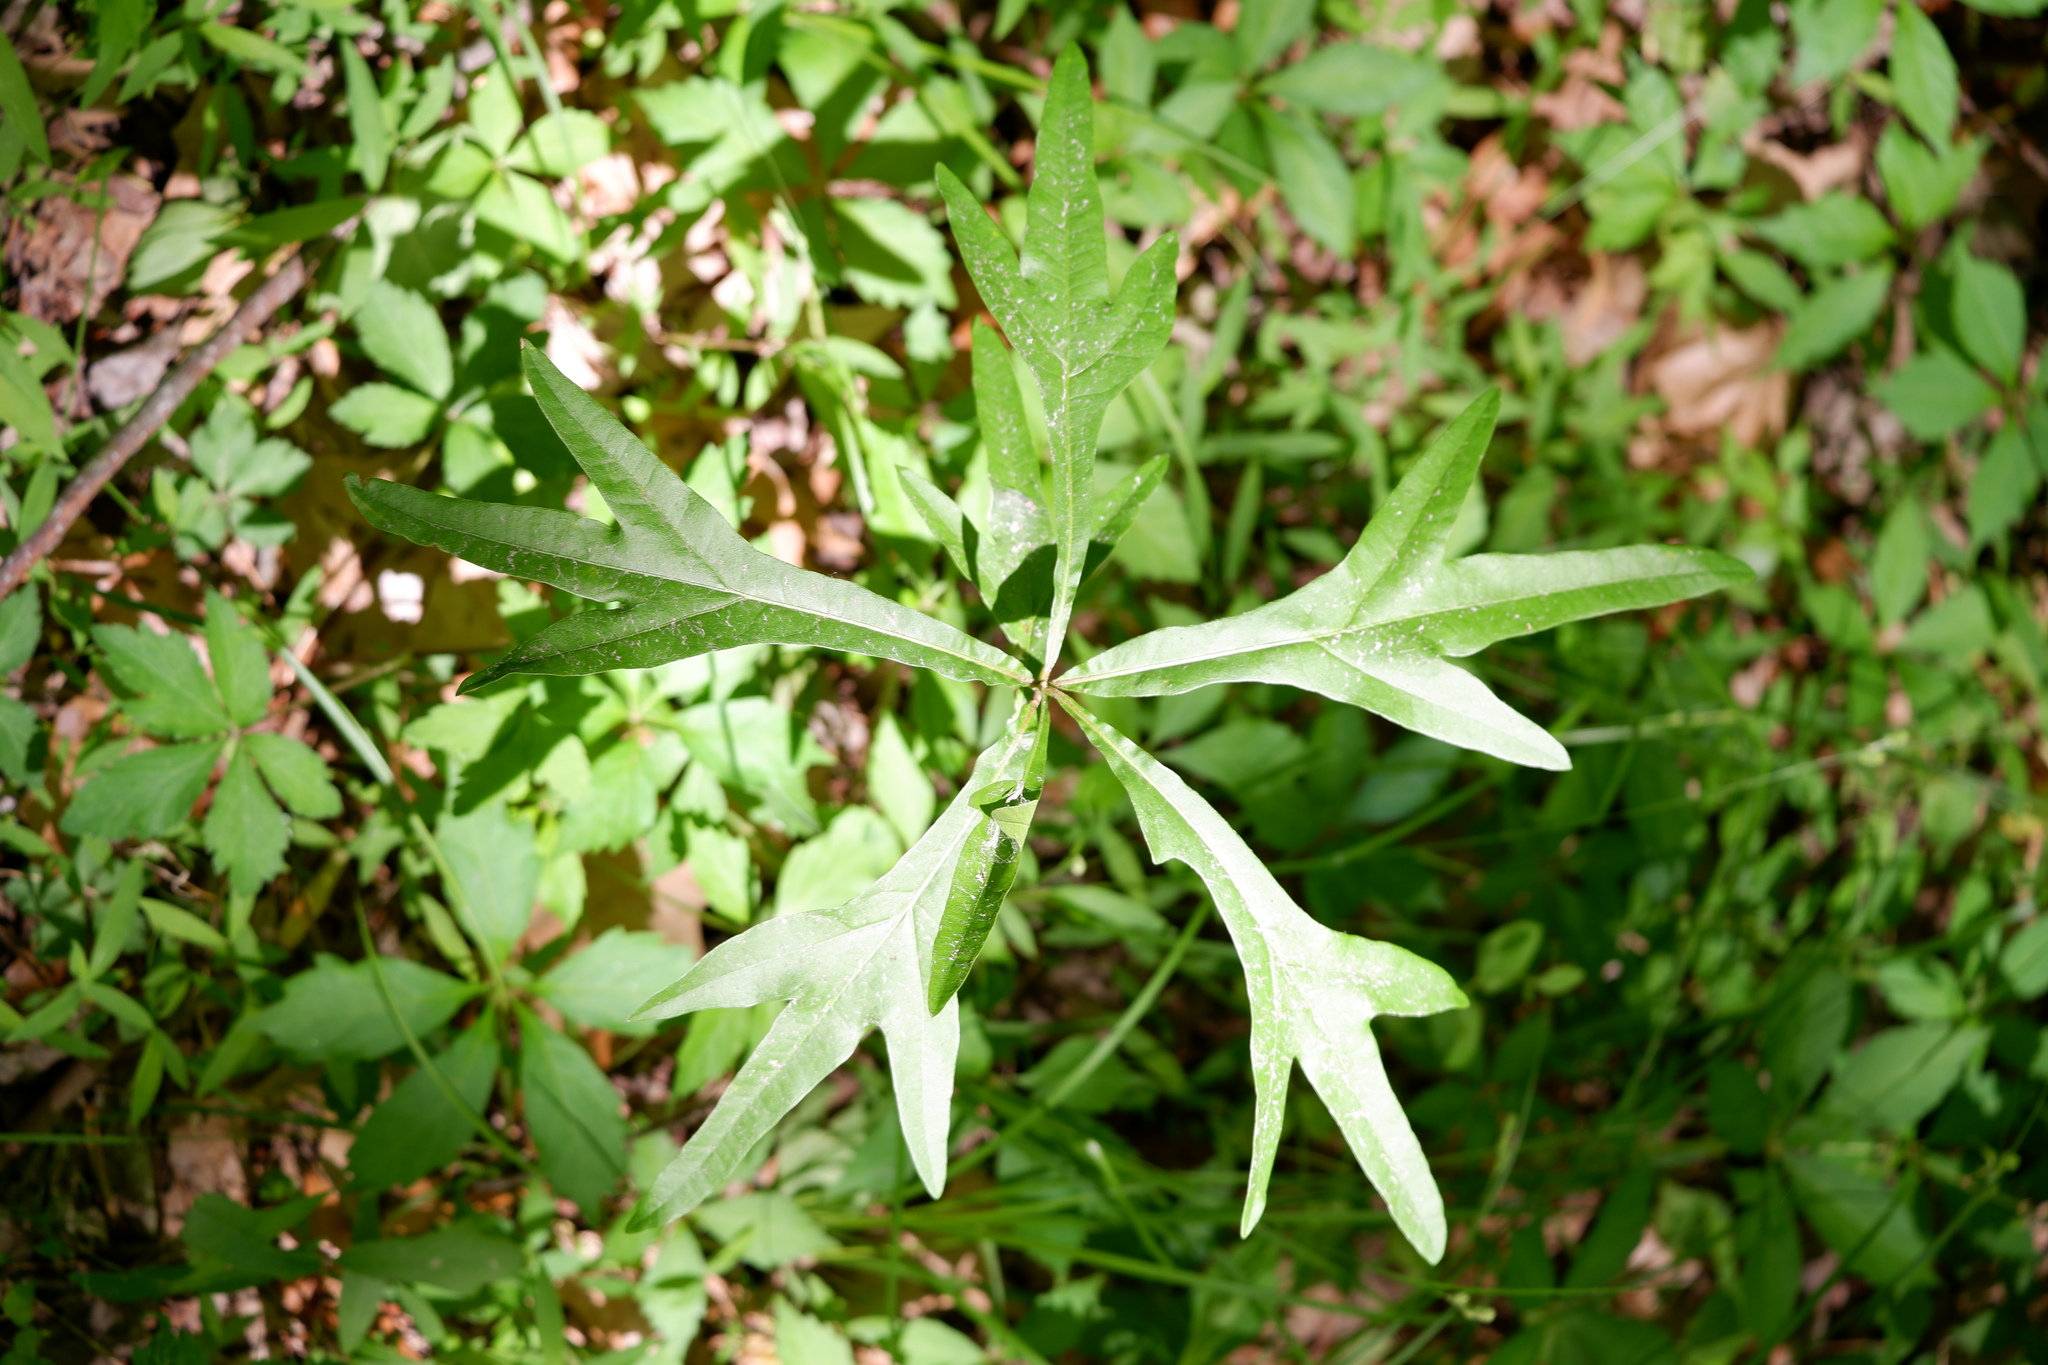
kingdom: Plantae
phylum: Tracheophyta
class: Magnoliopsida
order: Fagales
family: Fagaceae
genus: Quercus
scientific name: Quercus nigra
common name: Water oak
